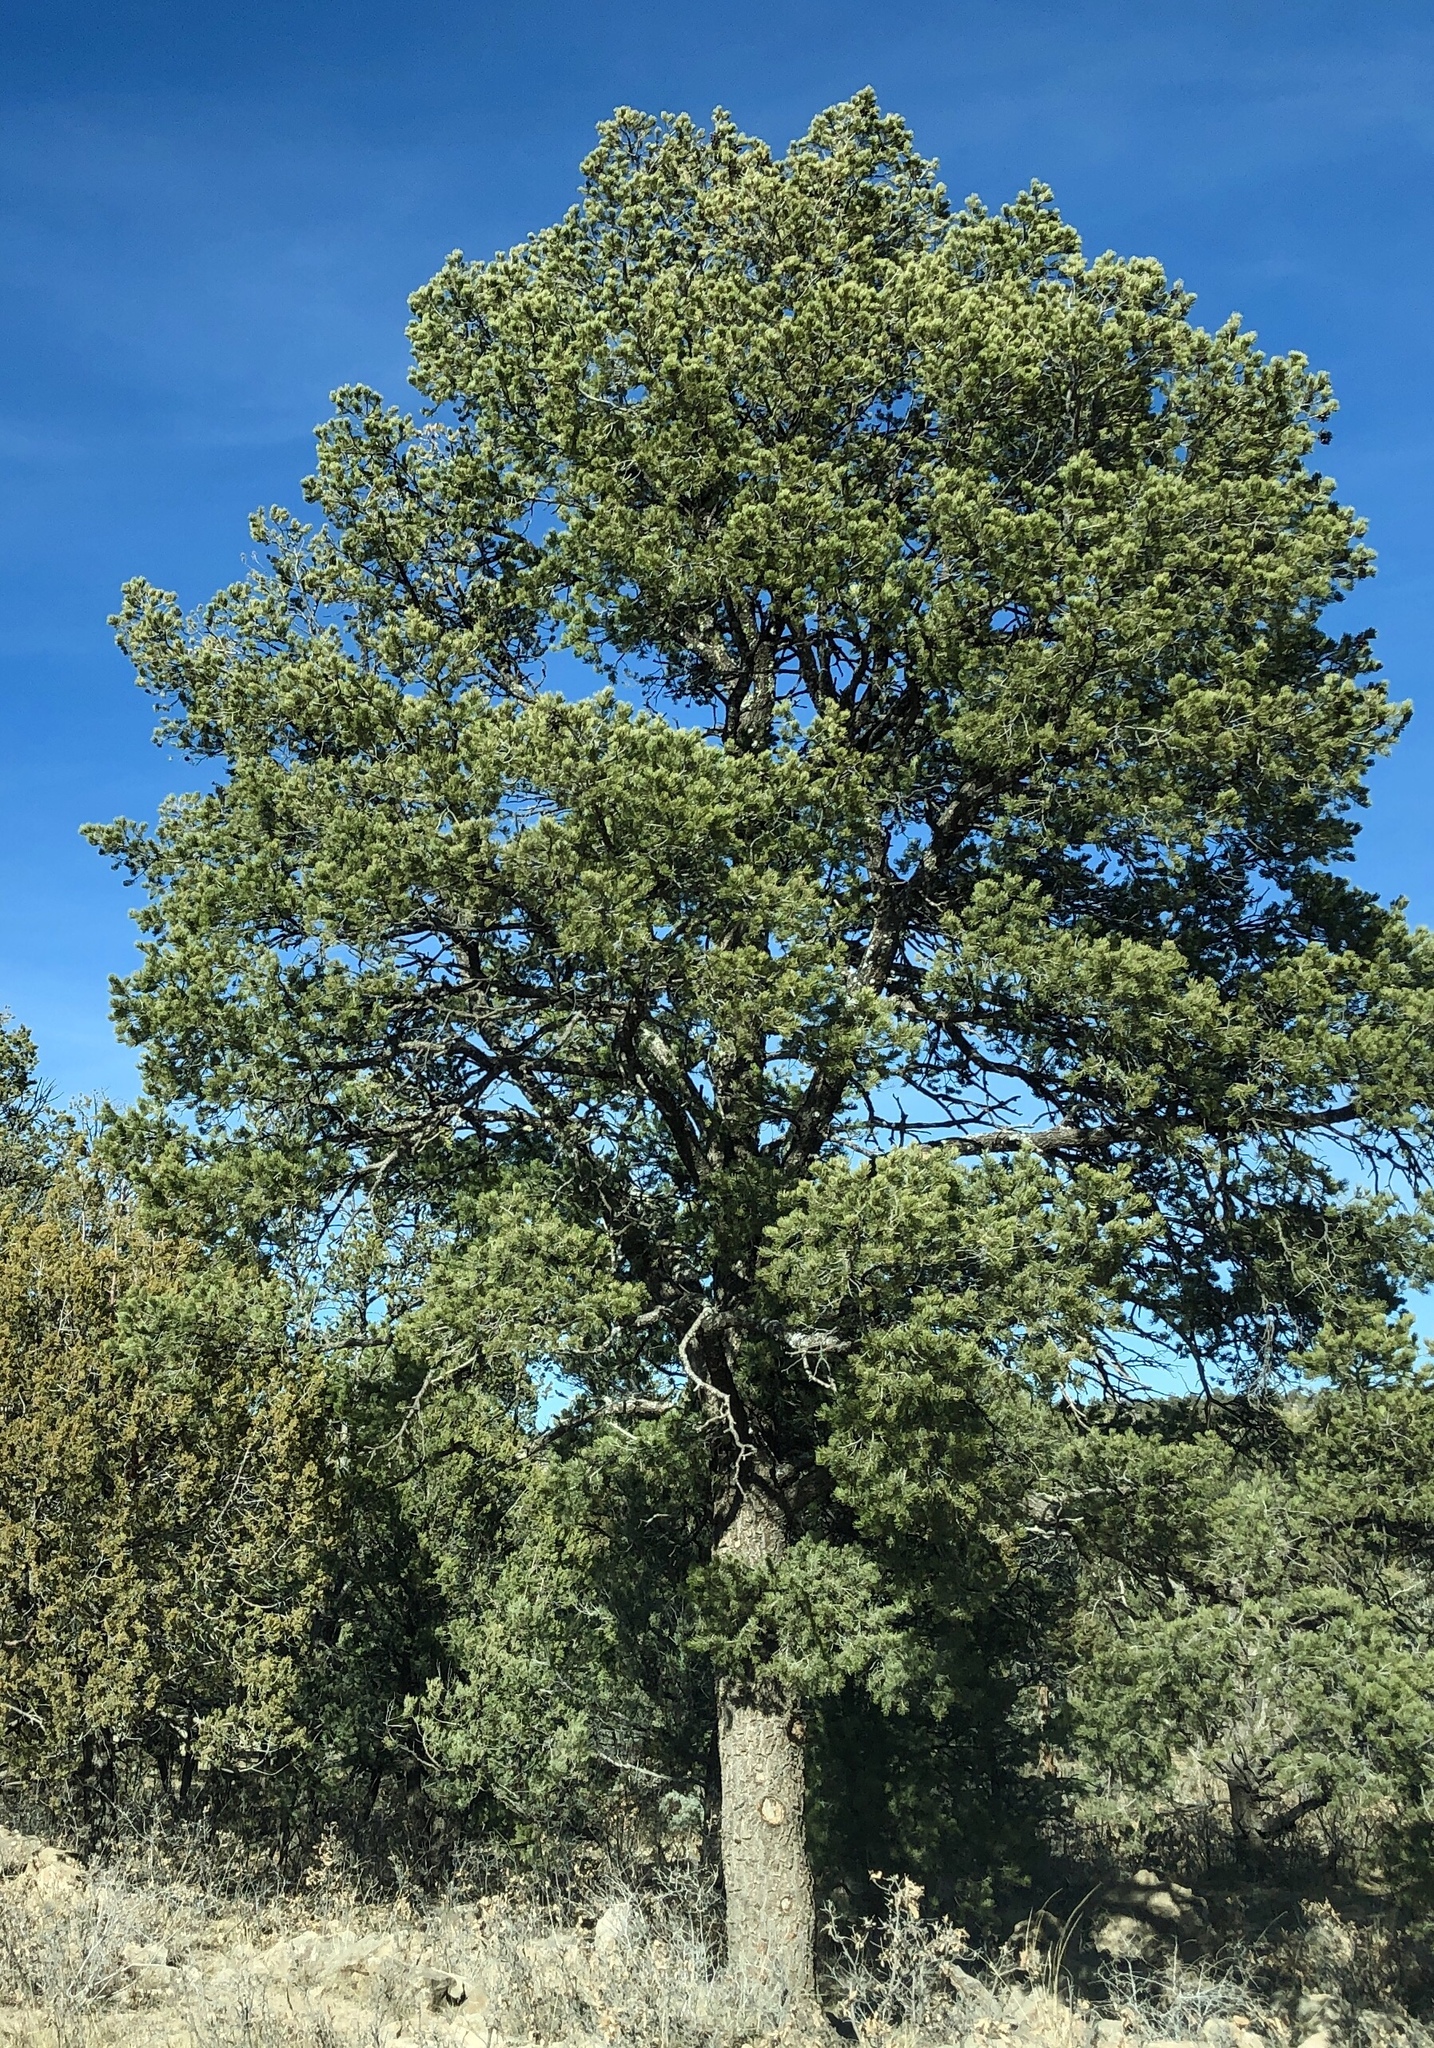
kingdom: Plantae
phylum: Tracheophyta
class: Pinopsida
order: Pinales
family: Pinaceae
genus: Pinus
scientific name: Pinus edulis
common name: Colorado pinyon
